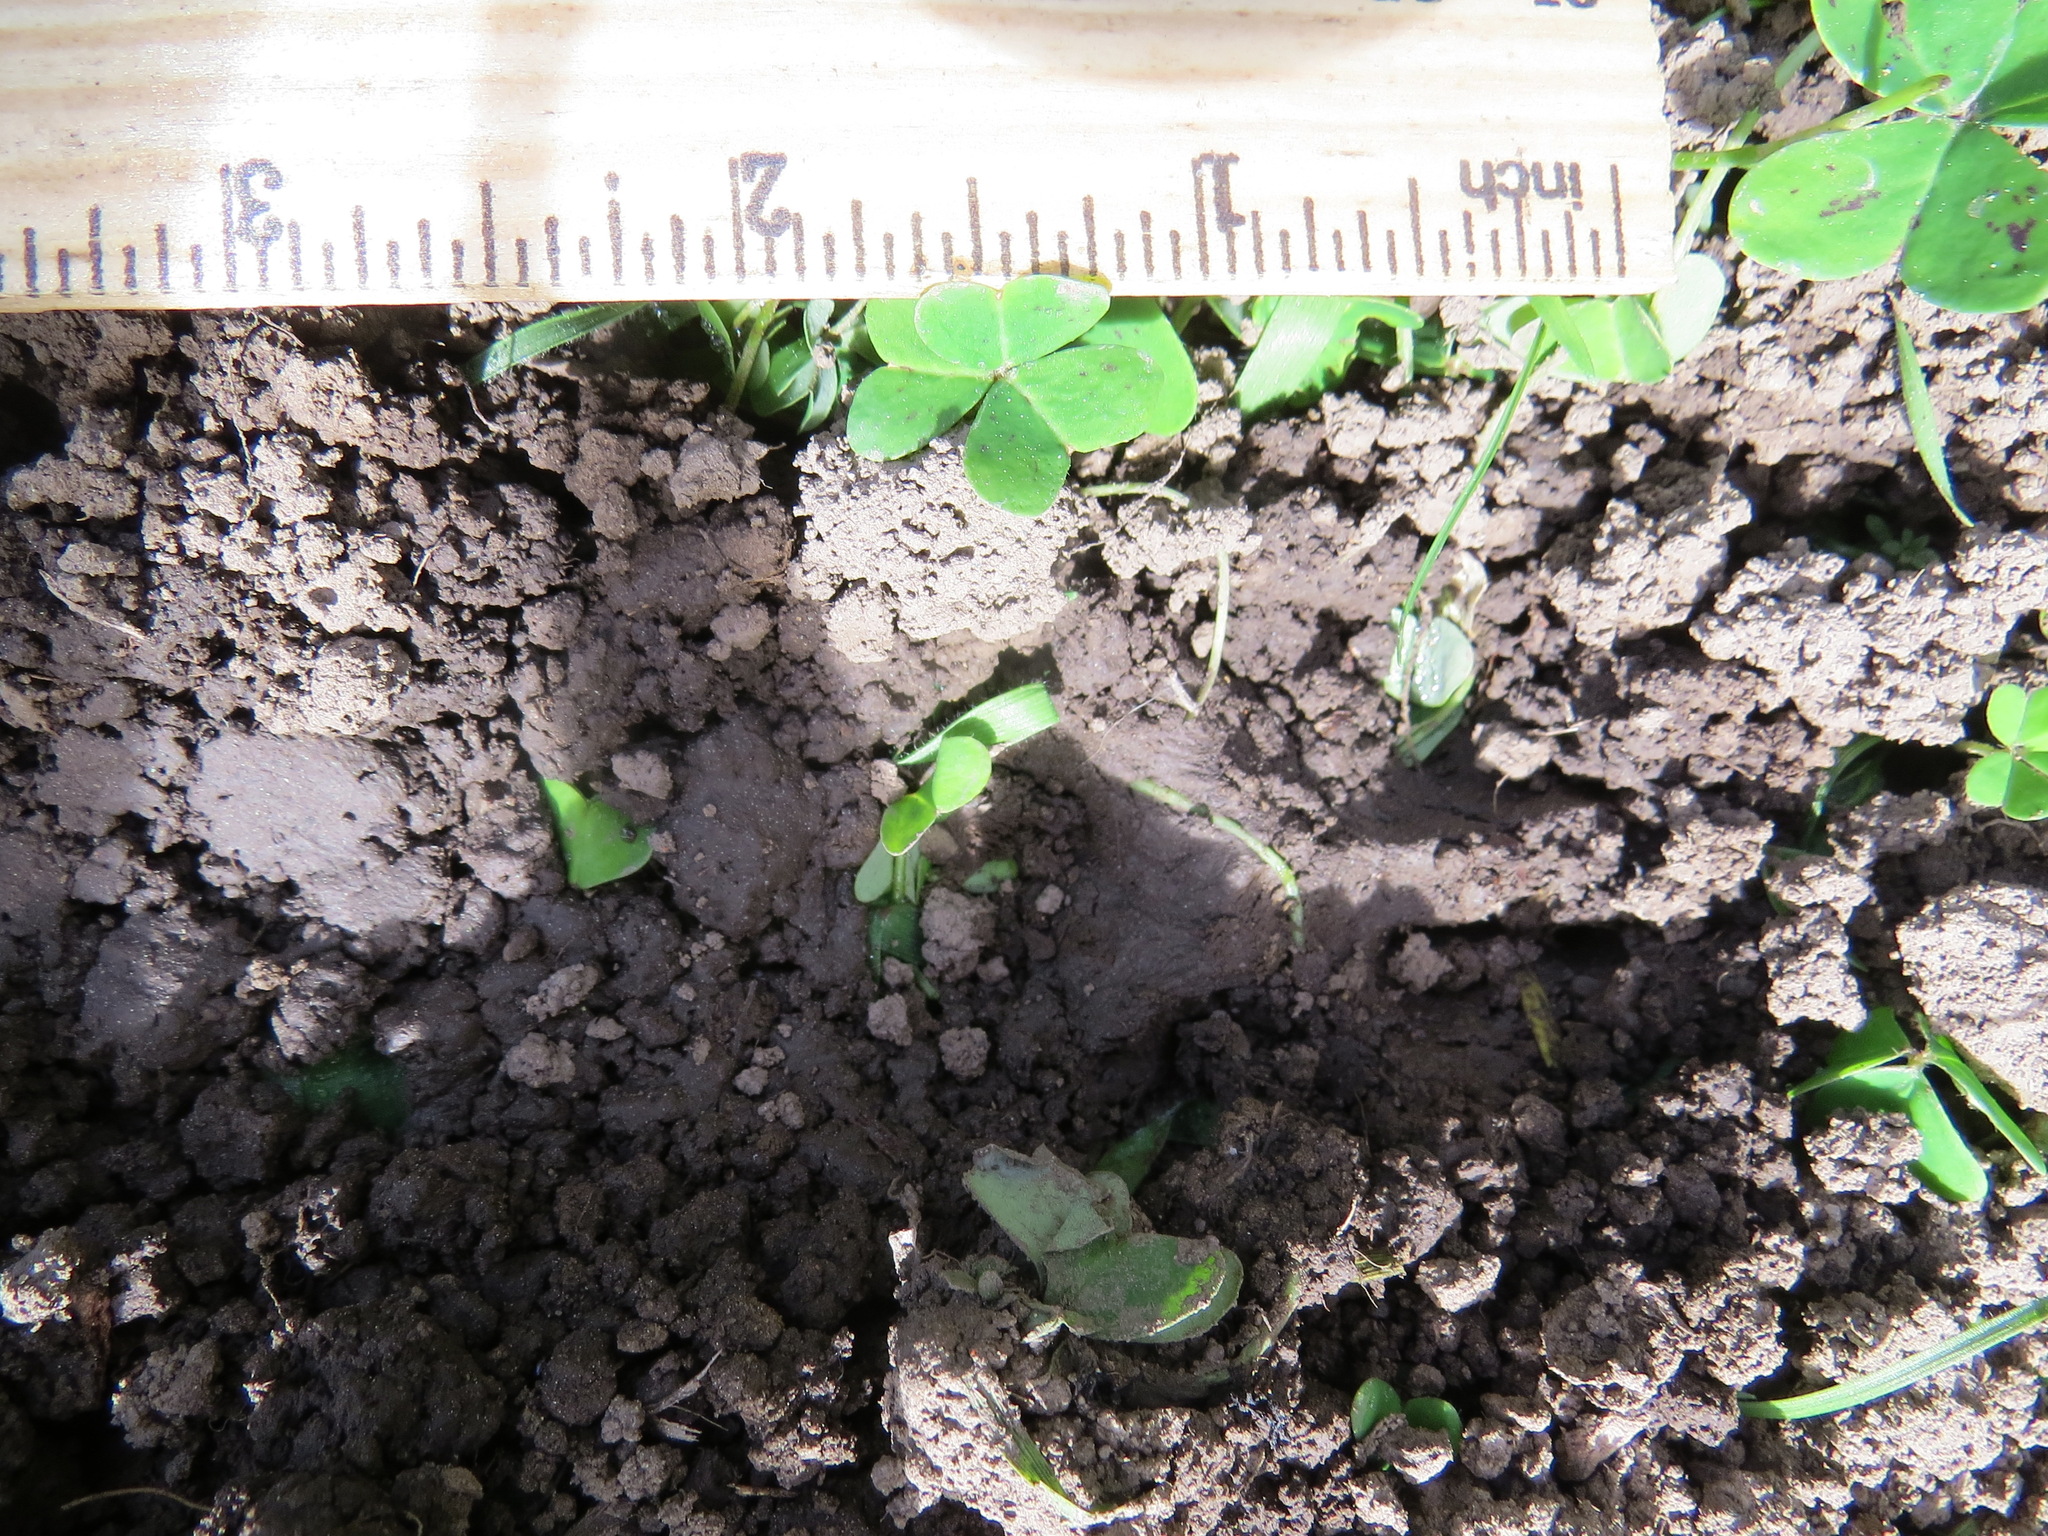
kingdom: Animalia
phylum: Chordata
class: Mammalia
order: Carnivora
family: Canidae
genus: Urocyon
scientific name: Urocyon cinereoargenteus
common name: Gray fox
